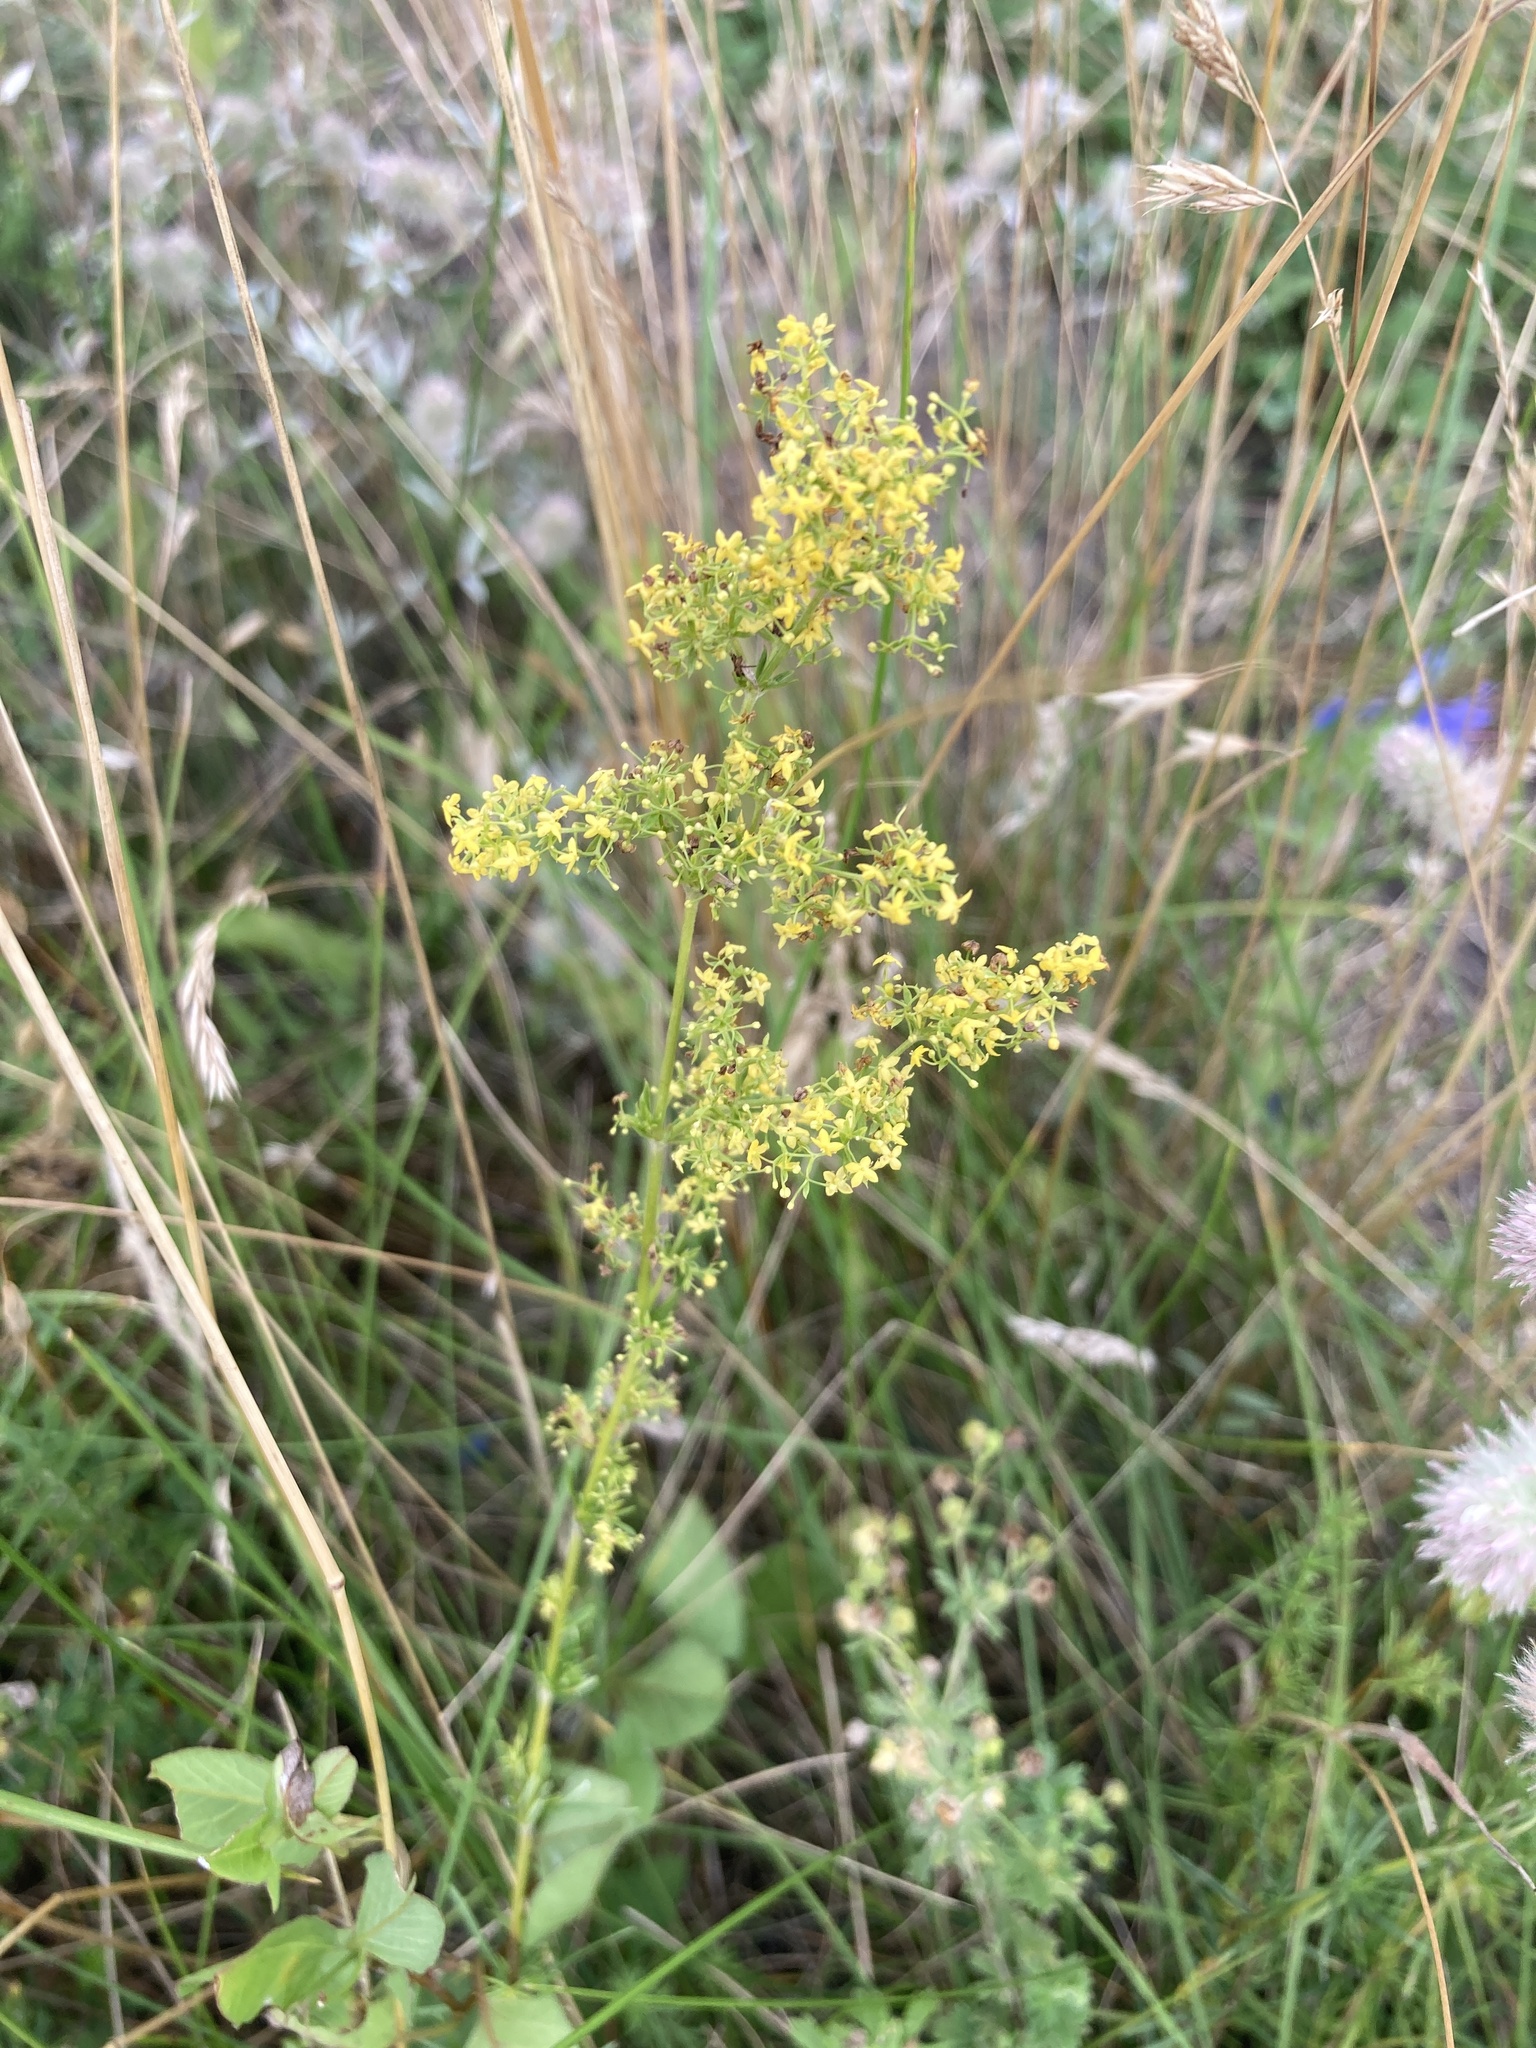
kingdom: Plantae
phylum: Tracheophyta
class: Magnoliopsida
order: Gentianales
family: Rubiaceae
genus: Galium
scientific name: Galium verum
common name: Lady's bedstraw
